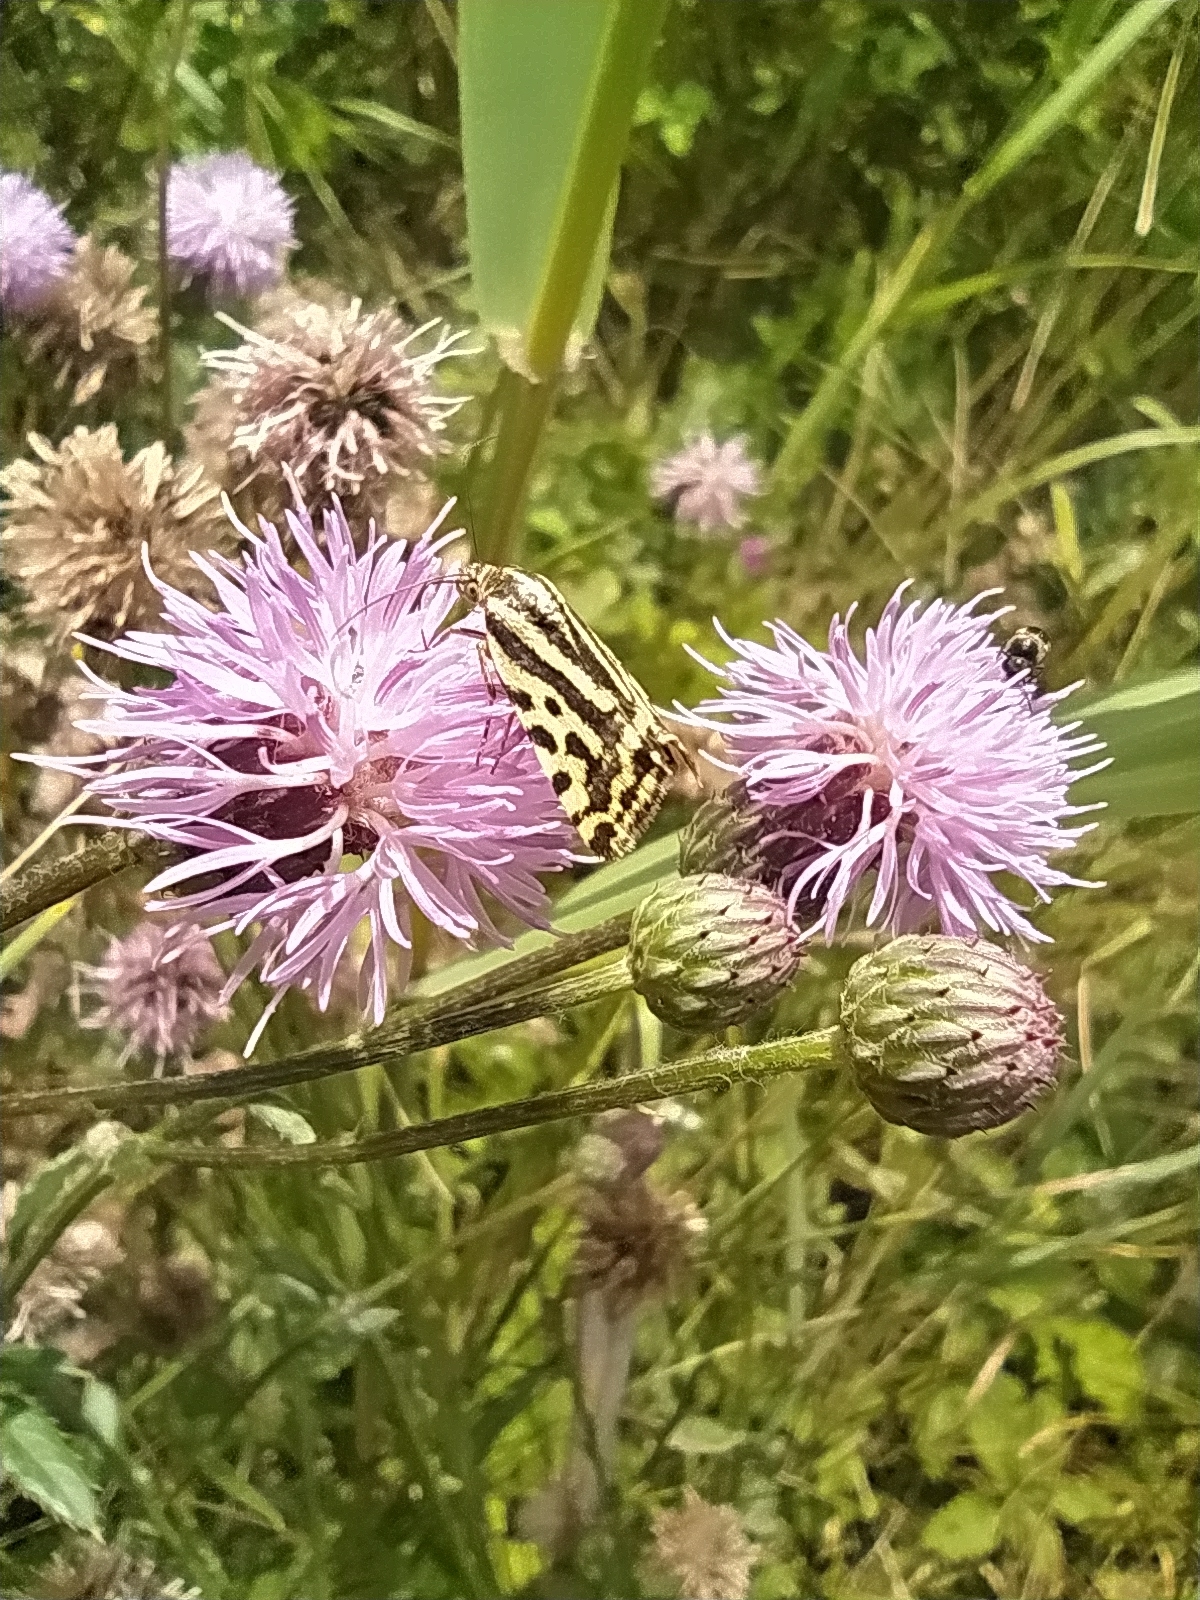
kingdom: Animalia
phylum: Arthropoda
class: Insecta
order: Lepidoptera
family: Noctuidae
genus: Acontia
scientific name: Acontia trabealis
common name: Spotted sulphur
